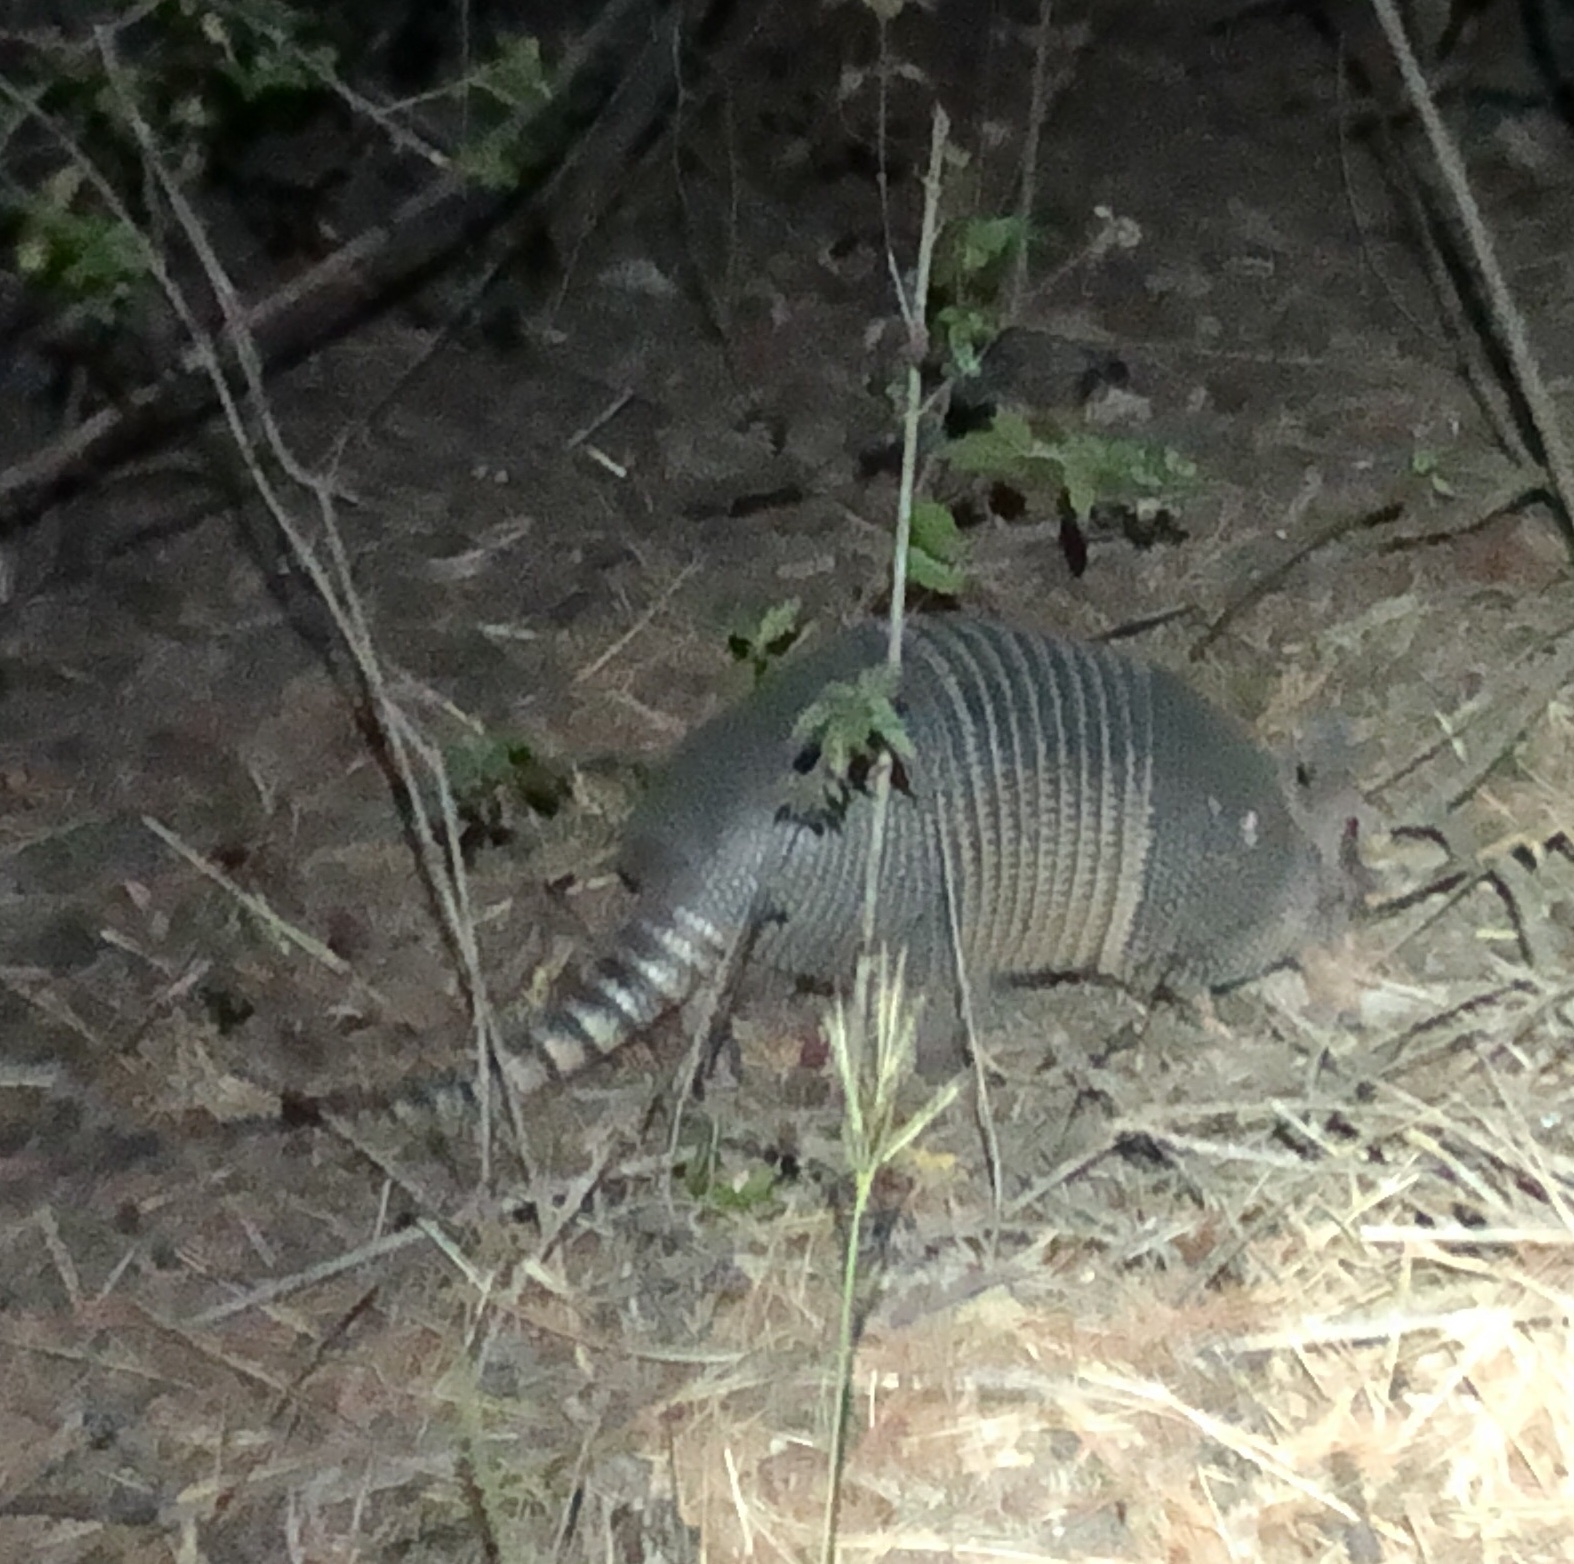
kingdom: Animalia
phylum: Chordata
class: Mammalia
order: Cingulata
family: Dasypodidae
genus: Dasypus
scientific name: Dasypus novemcinctus
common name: Nine-banded armadillo
